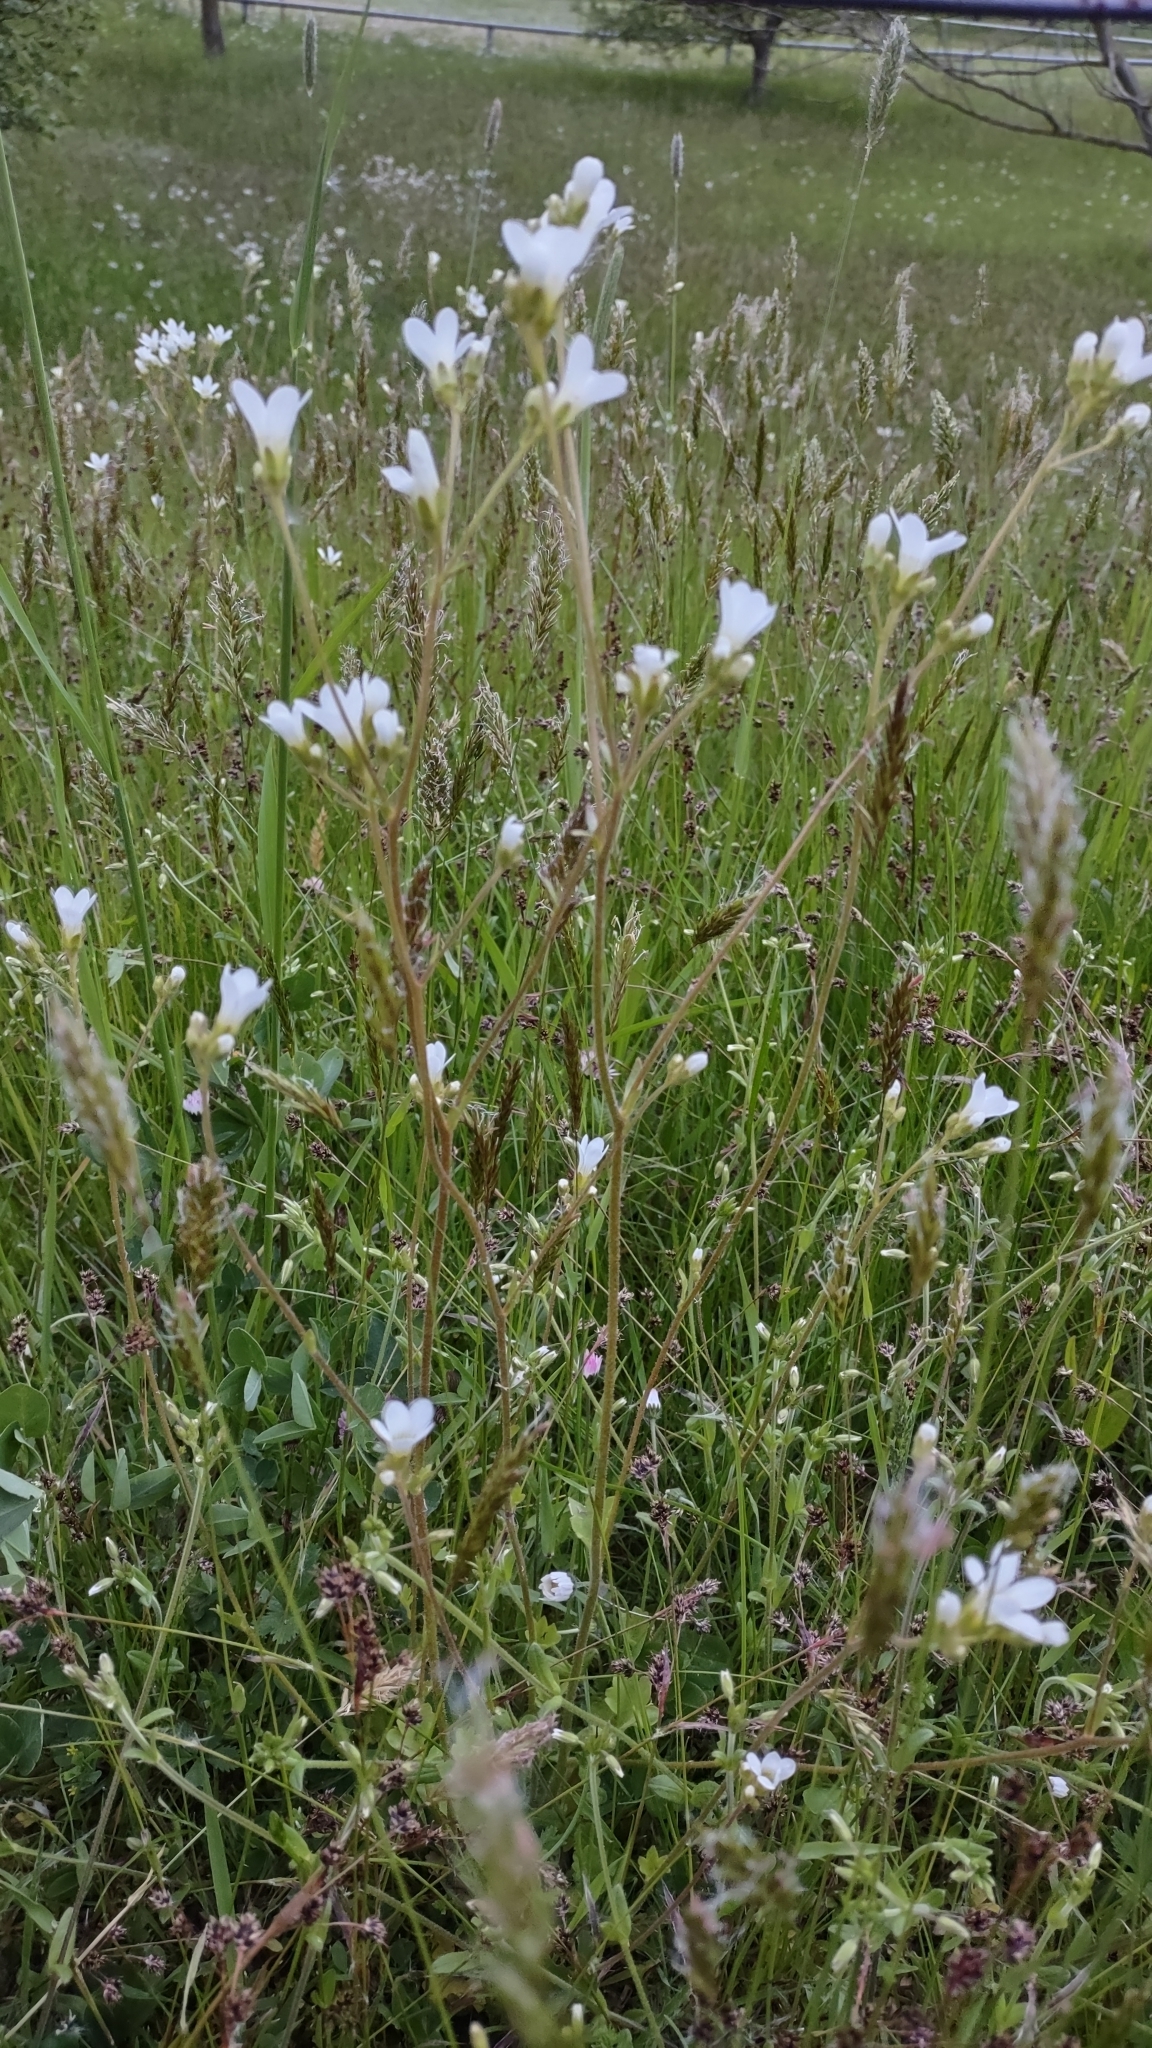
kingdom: Plantae
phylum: Tracheophyta
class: Magnoliopsida
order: Saxifragales
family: Saxifragaceae
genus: Saxifraga
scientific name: Saxifraga granulata
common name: Meadow saxifrage
